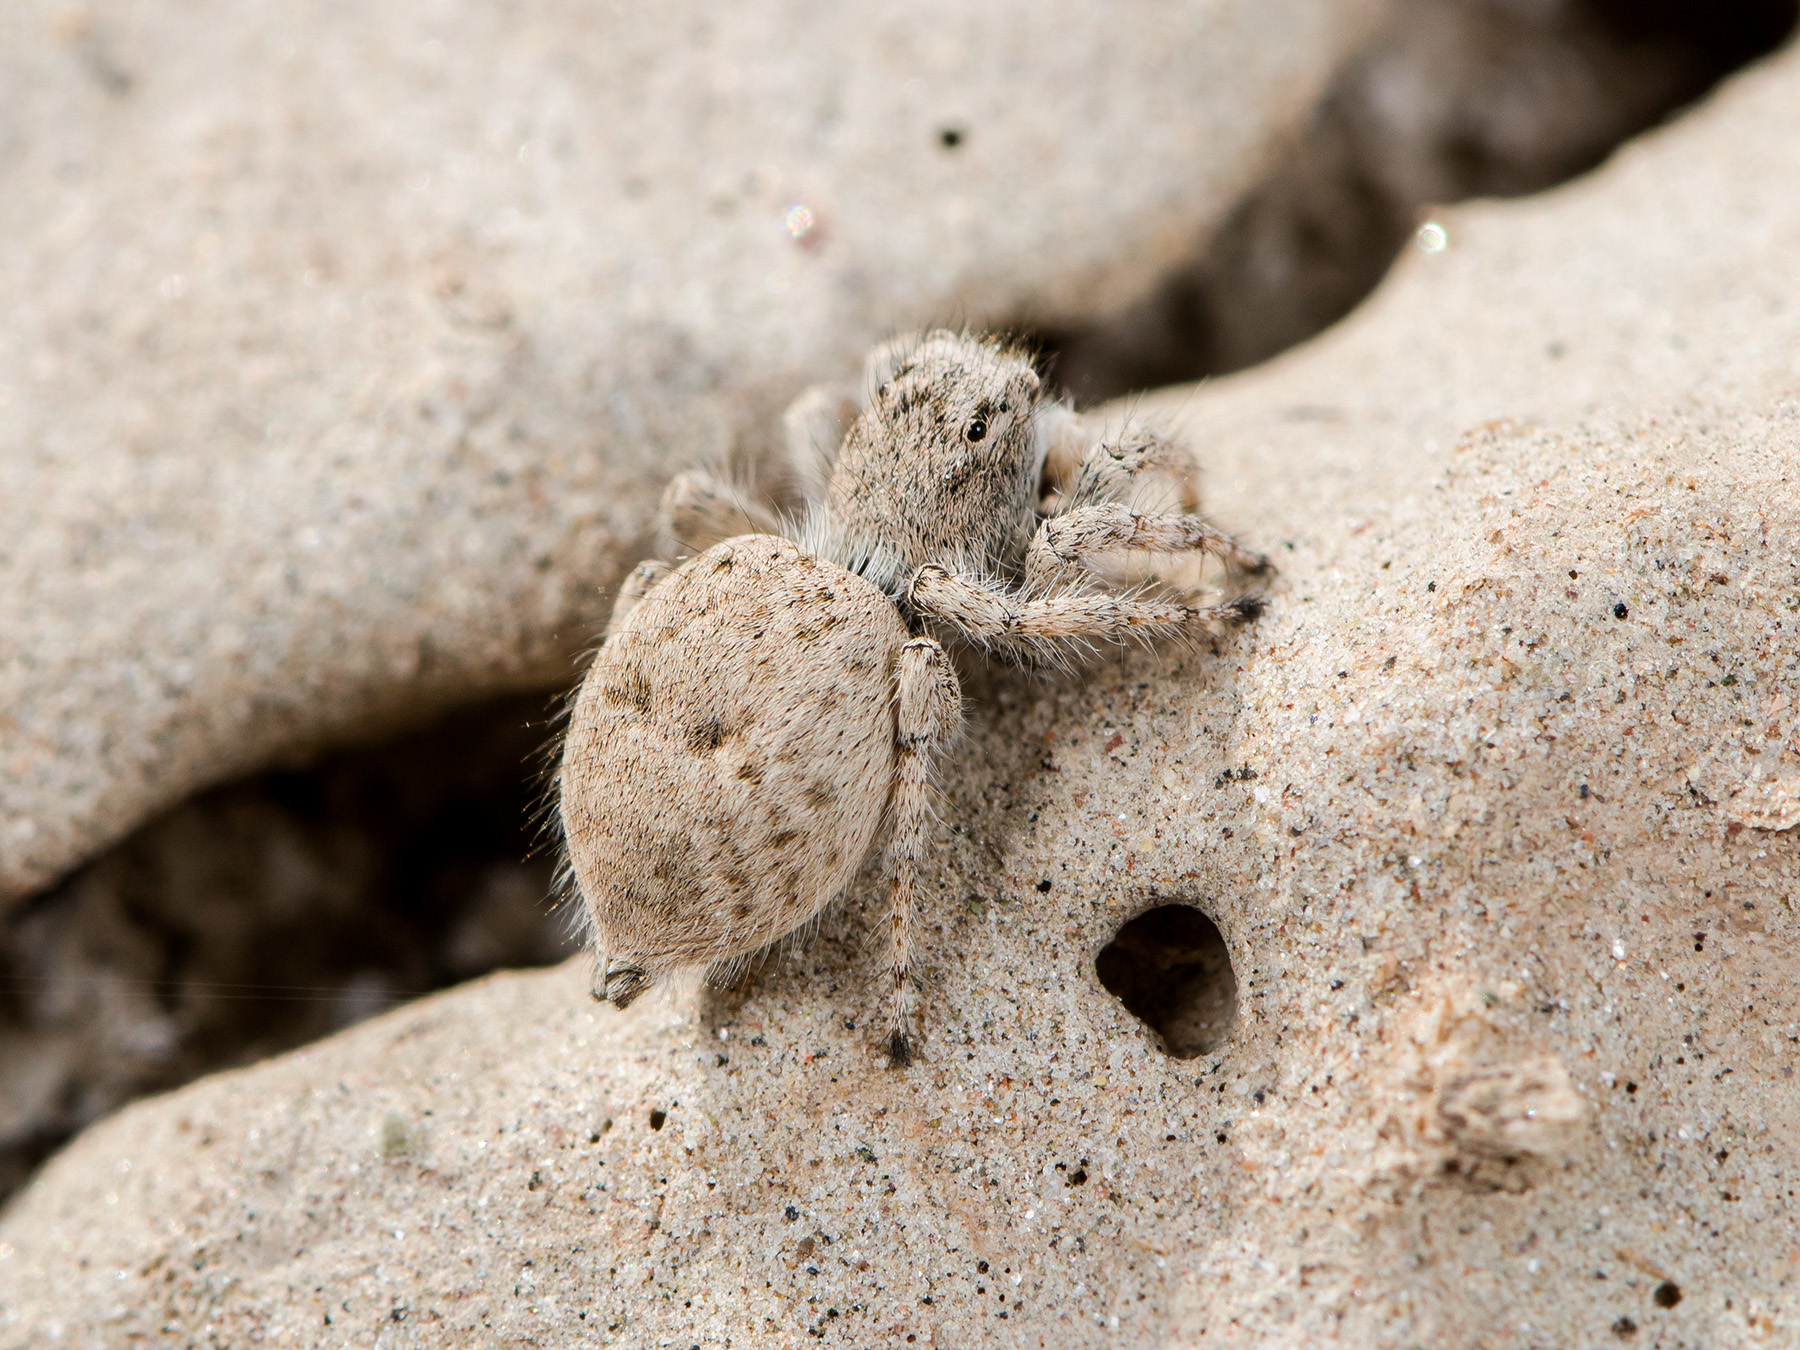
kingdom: Animalia
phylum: Arthropoda
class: Arachnida
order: Araneae
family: Salticidae
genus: Aelurillus
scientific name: Aelurillus concolor
